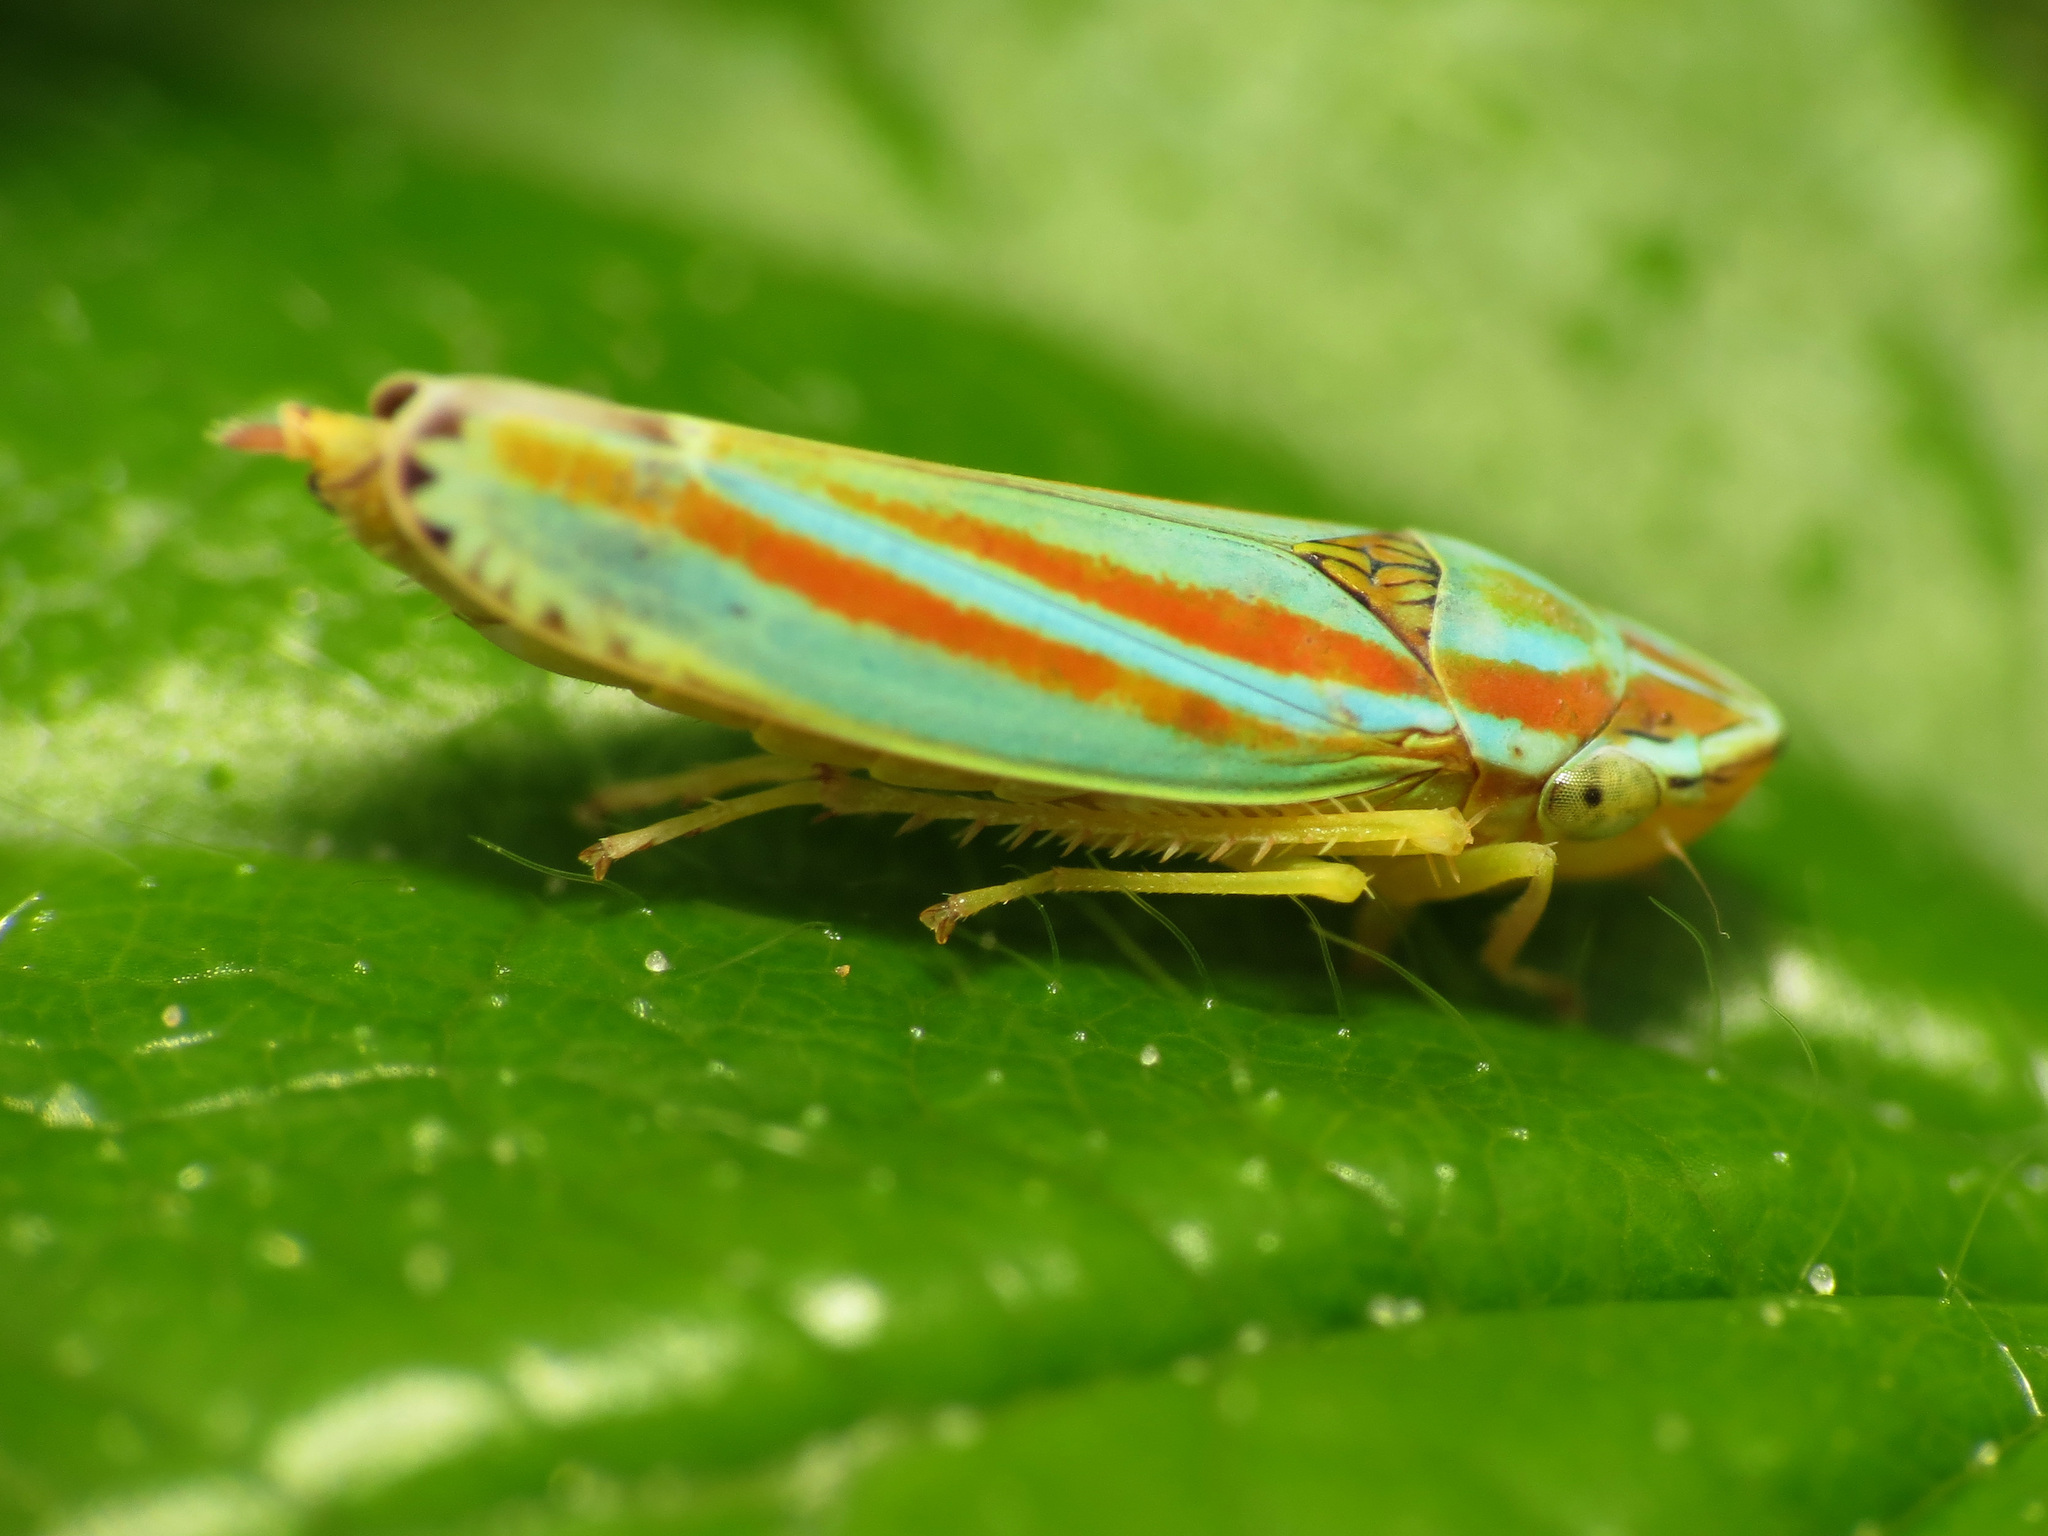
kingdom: Animalia
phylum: Arthropoda
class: Insecta
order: Hemiptera
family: Cicadellidae
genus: Graphocephala
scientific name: Graphocephala versuta
